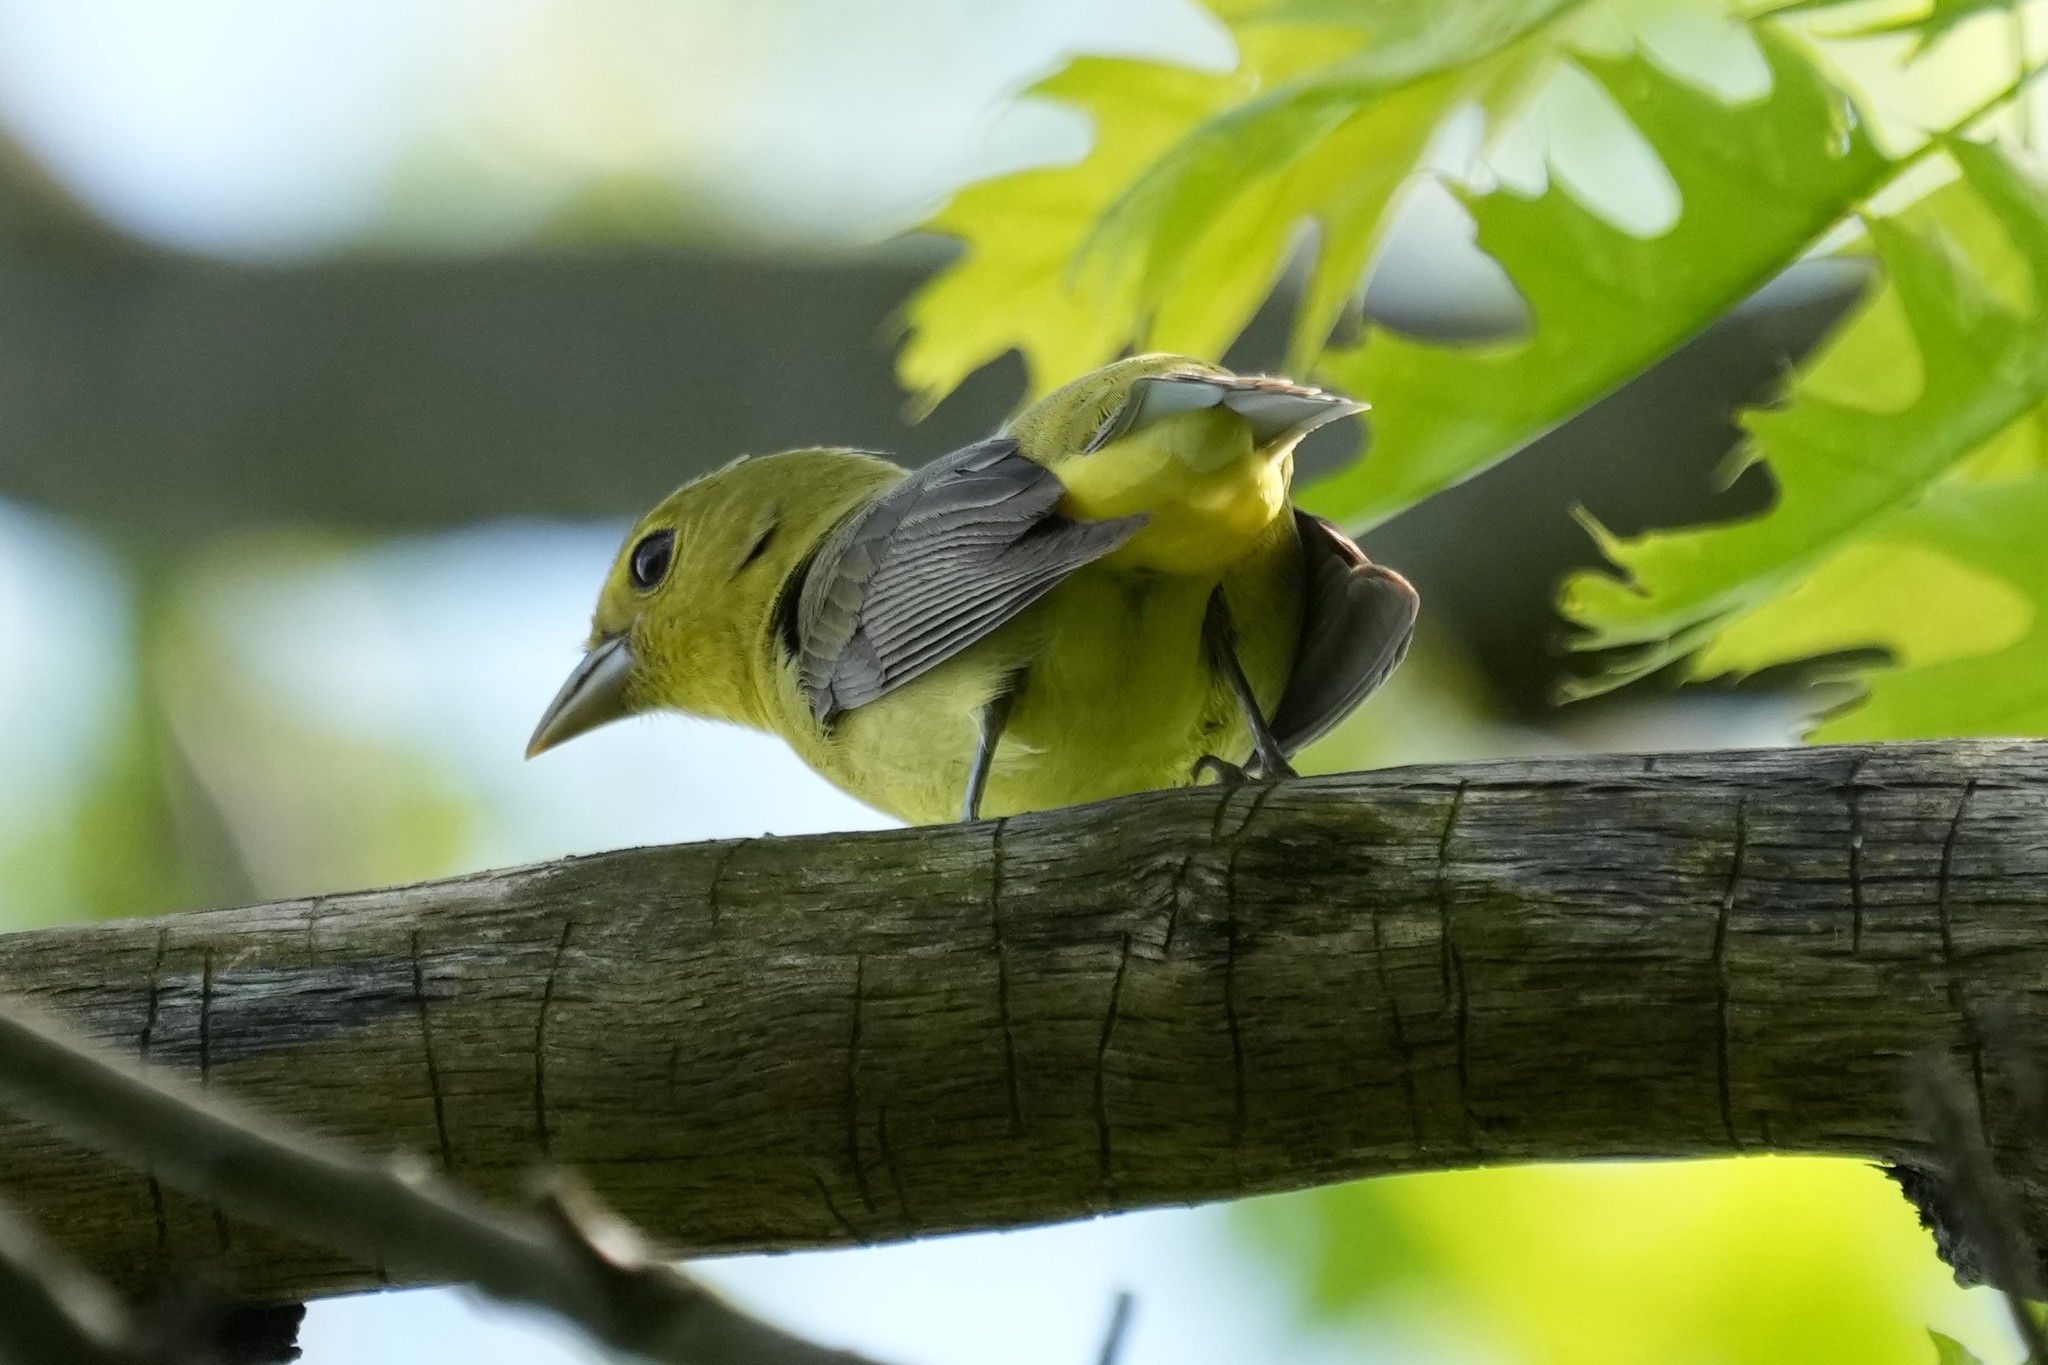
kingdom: Animalia
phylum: Chordata
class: Aves
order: Passeriformes
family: Cardinalidae
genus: Piranga
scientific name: Piranga olivacea
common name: Scarlet tanager
